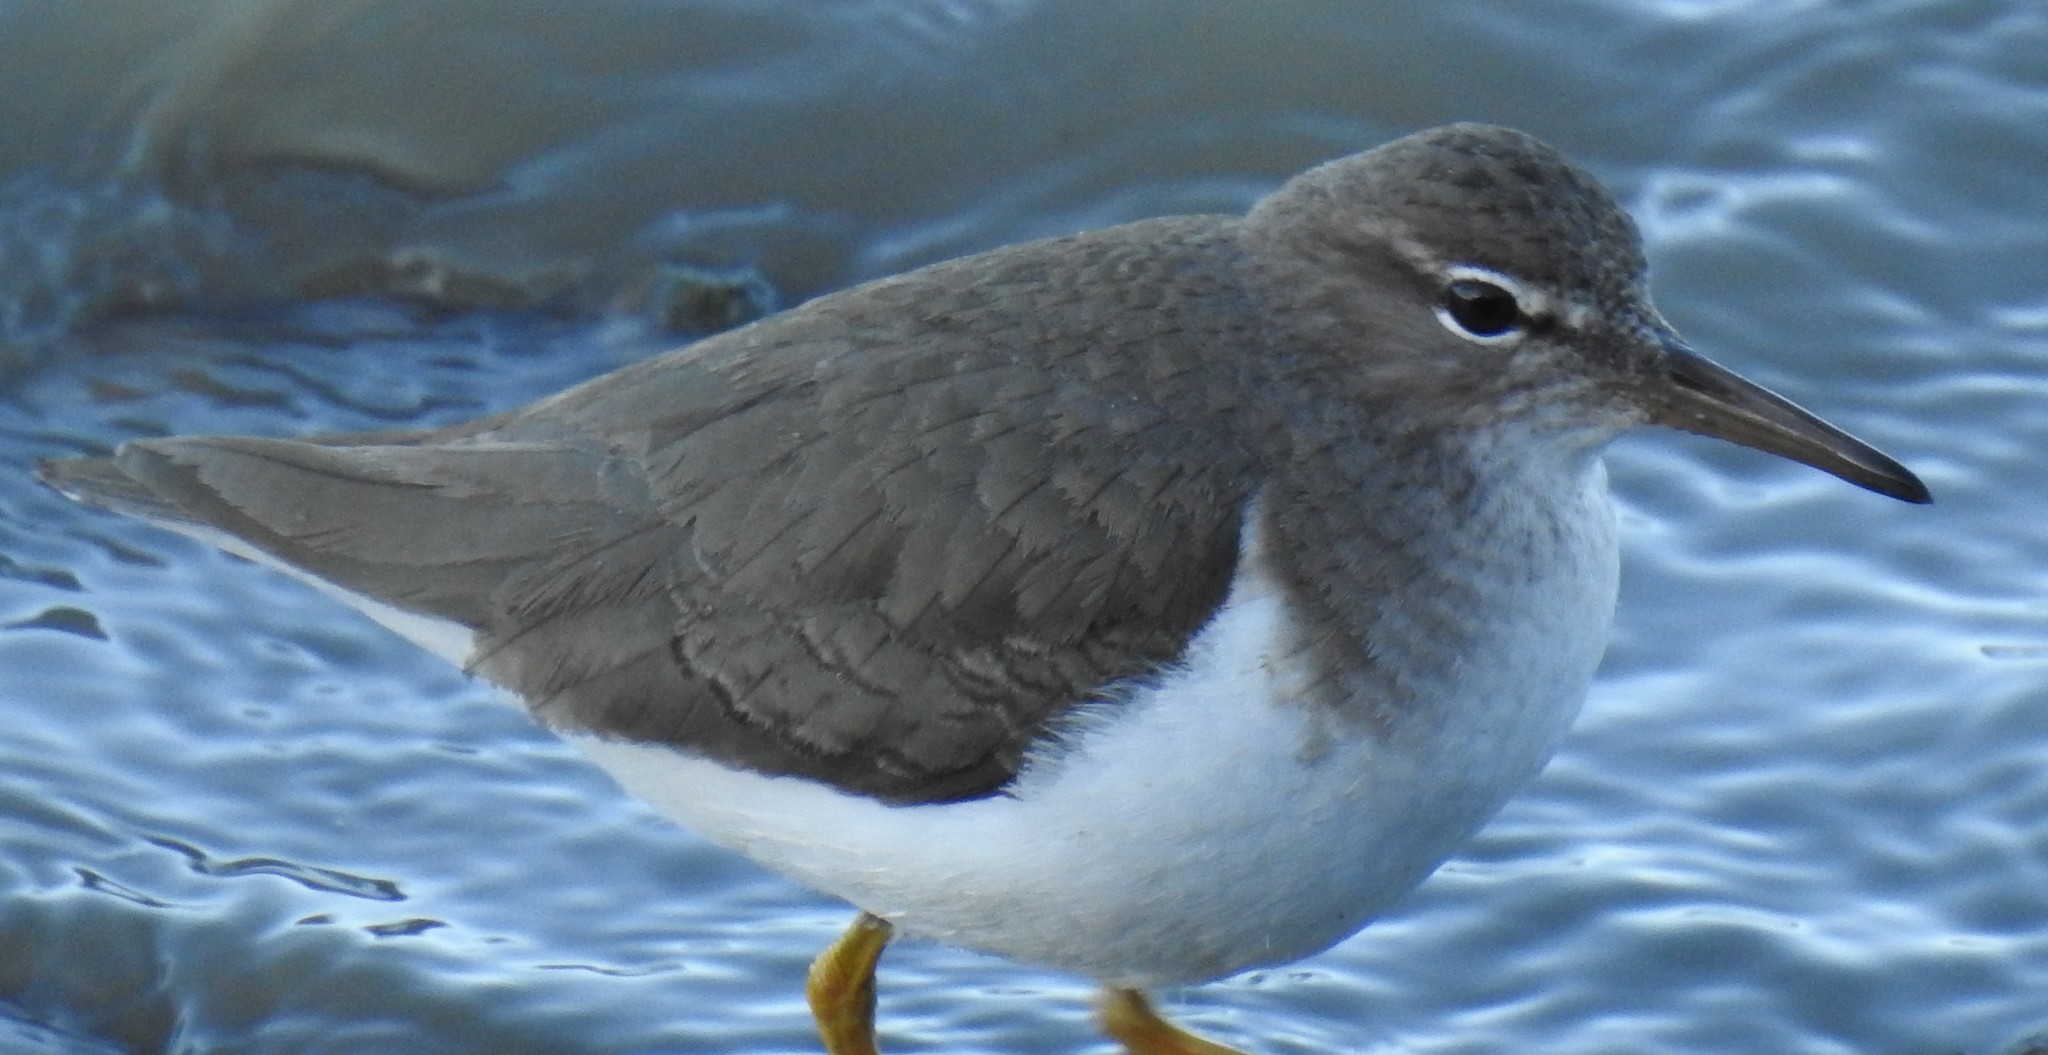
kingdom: Animalia
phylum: Chordata
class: Aves
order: Charadriiformes
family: Scolopacidae
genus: Actitis
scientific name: Actitis macularius
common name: Spotted sandpiper
